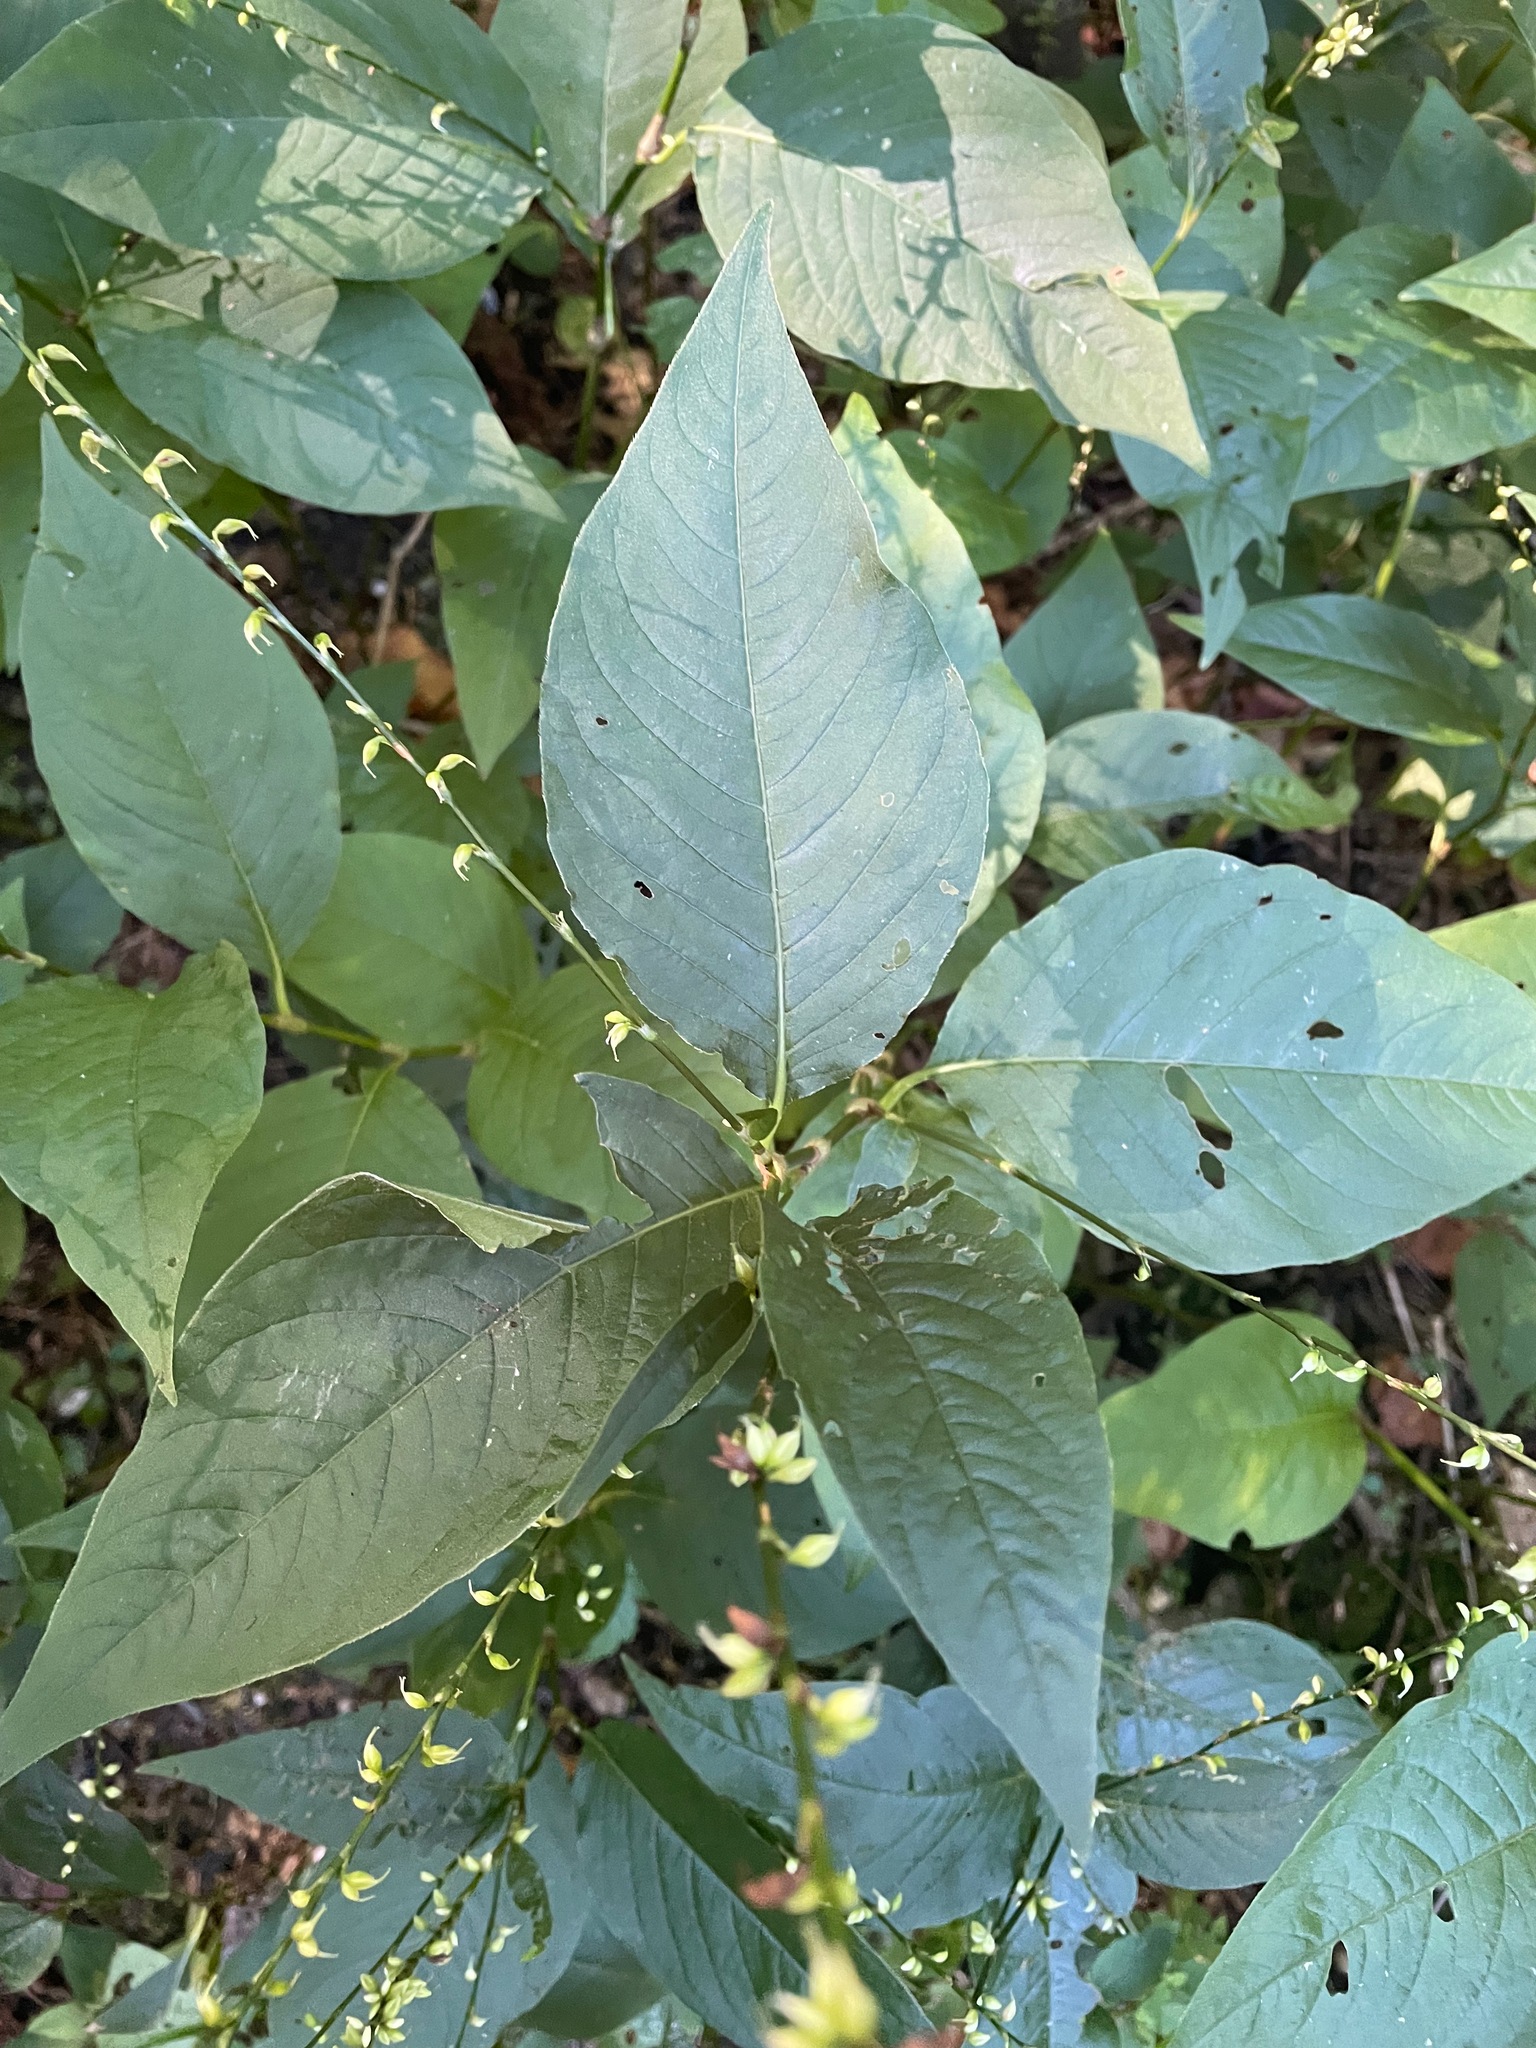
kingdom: Plantae
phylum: Tracheophyta
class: Magnoliopsida
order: Caryophyllales
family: Polygonaceae
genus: Persicaria
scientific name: Persicaria virginiana
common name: Jumpseed
